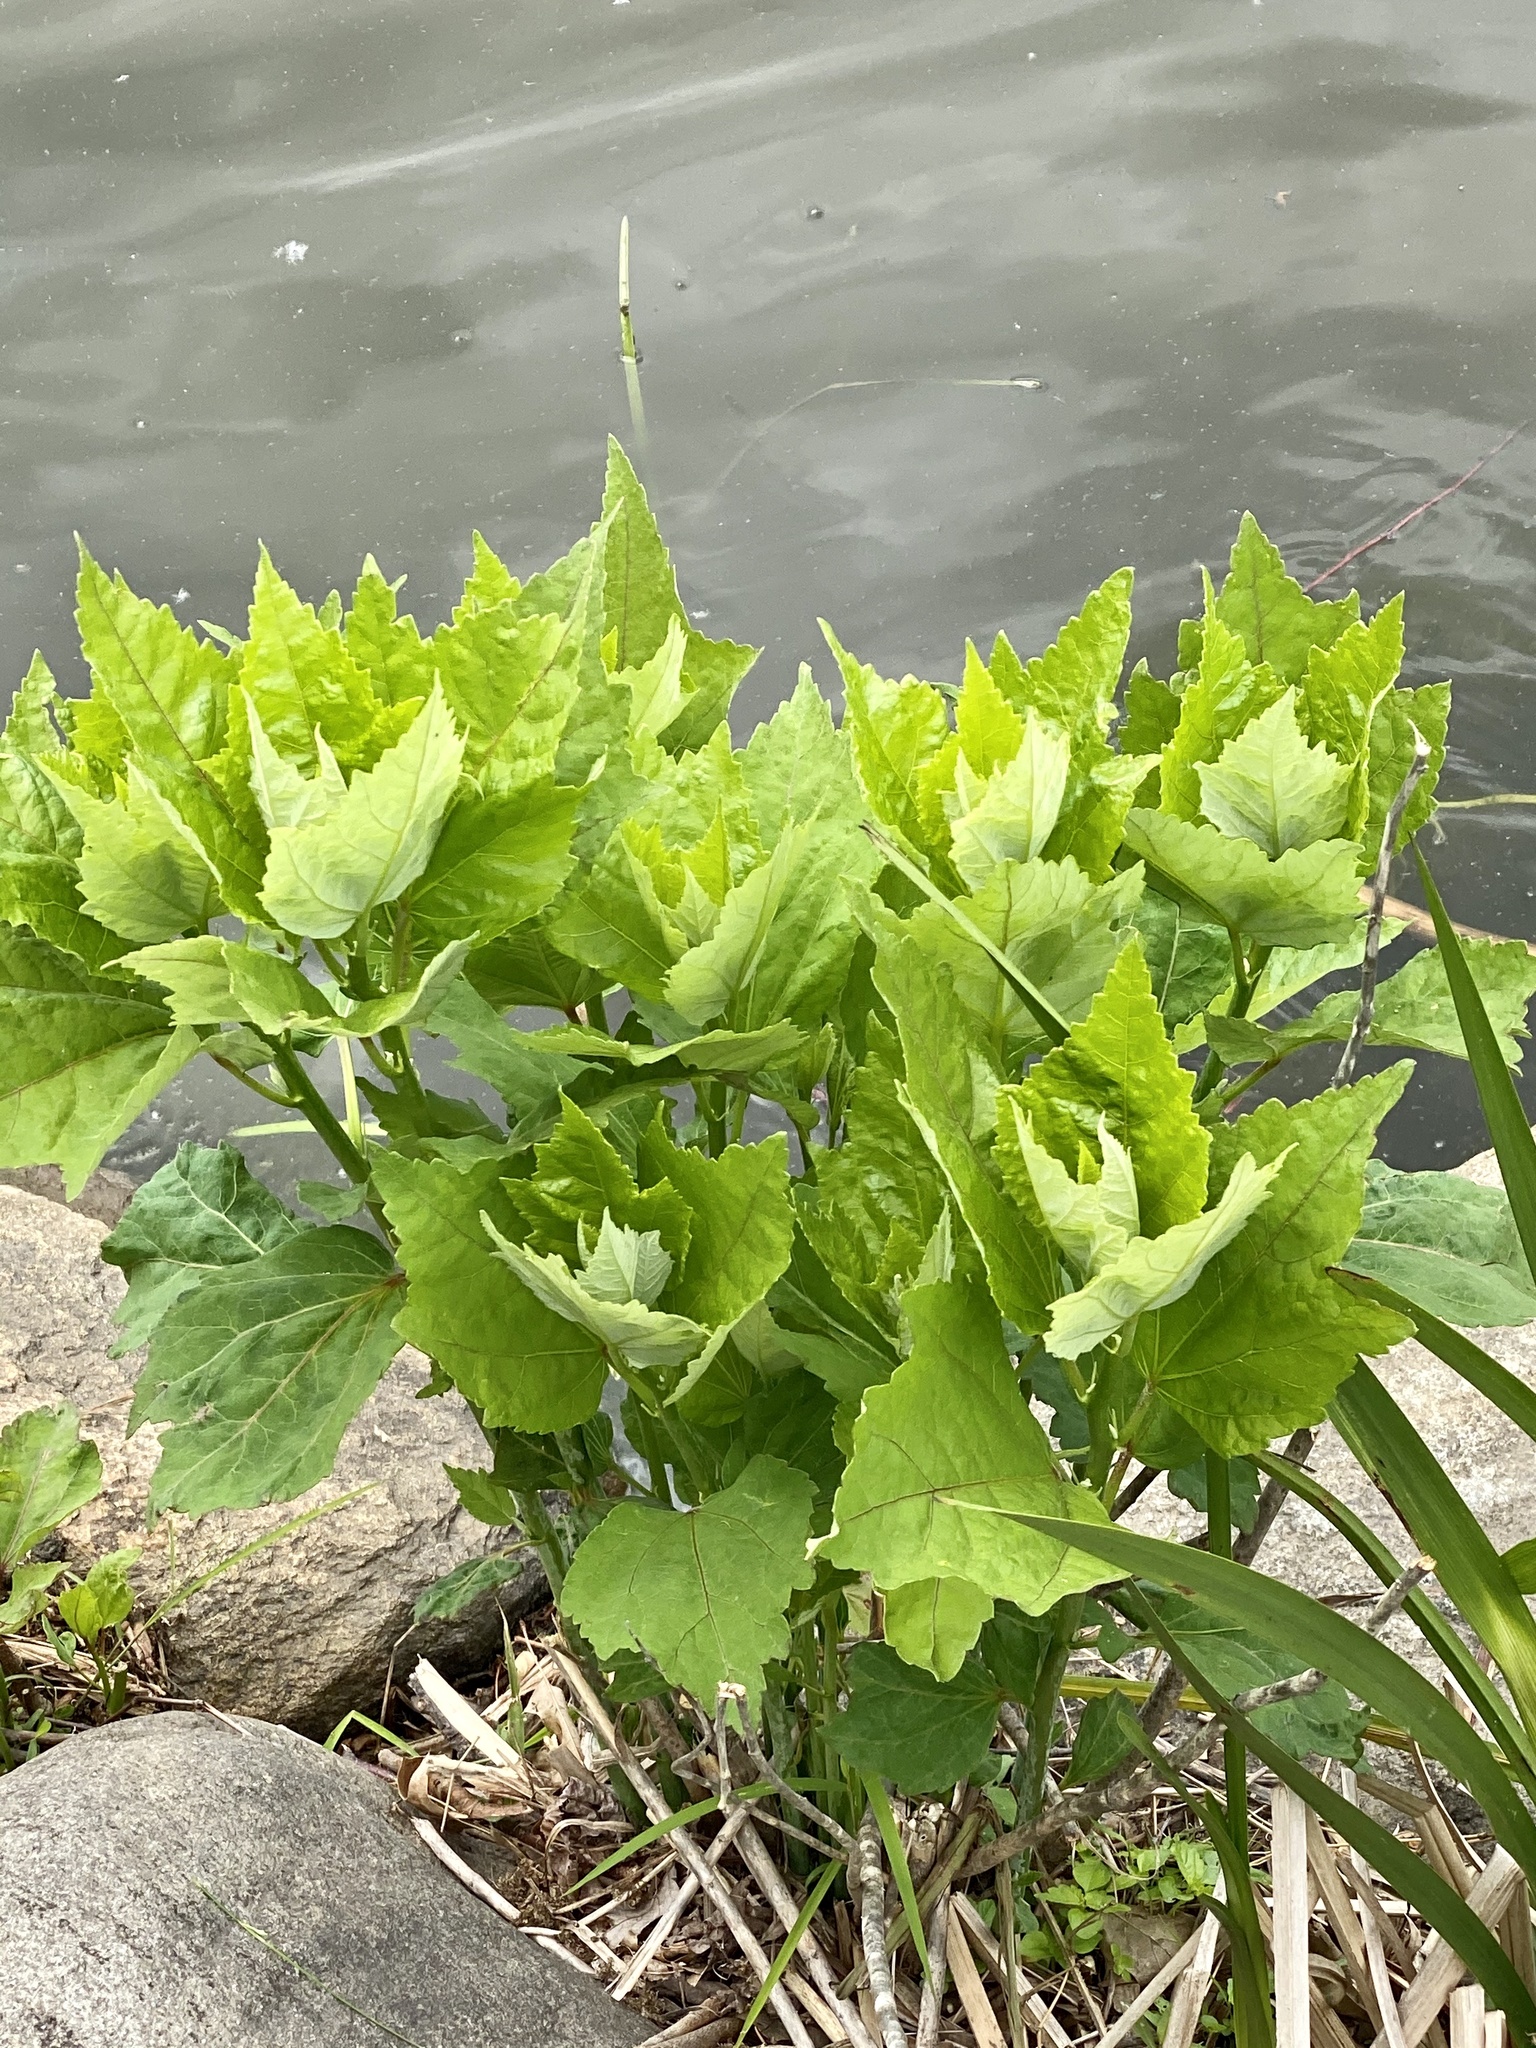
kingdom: Plantae
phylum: Tracheophyta
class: Magnoliopsida
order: Malvales
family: Malvaceae
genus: Hibiscus
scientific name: Hibiscus moscheutos
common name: Common rose-mallow
